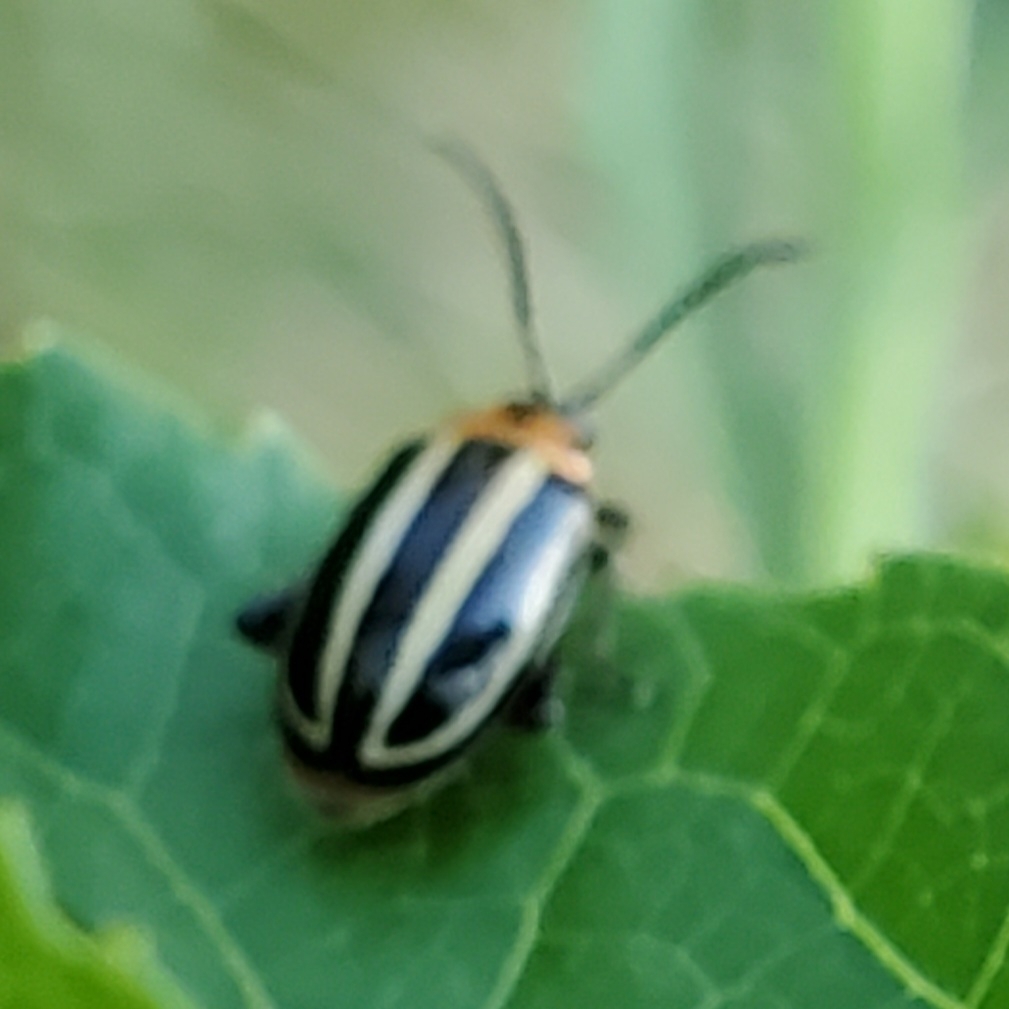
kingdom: Animalia
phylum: Arthropoda
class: Insecta
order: Coleoptera
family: Chrysomelidae
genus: Disonycha
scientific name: Disonycha glabrata
